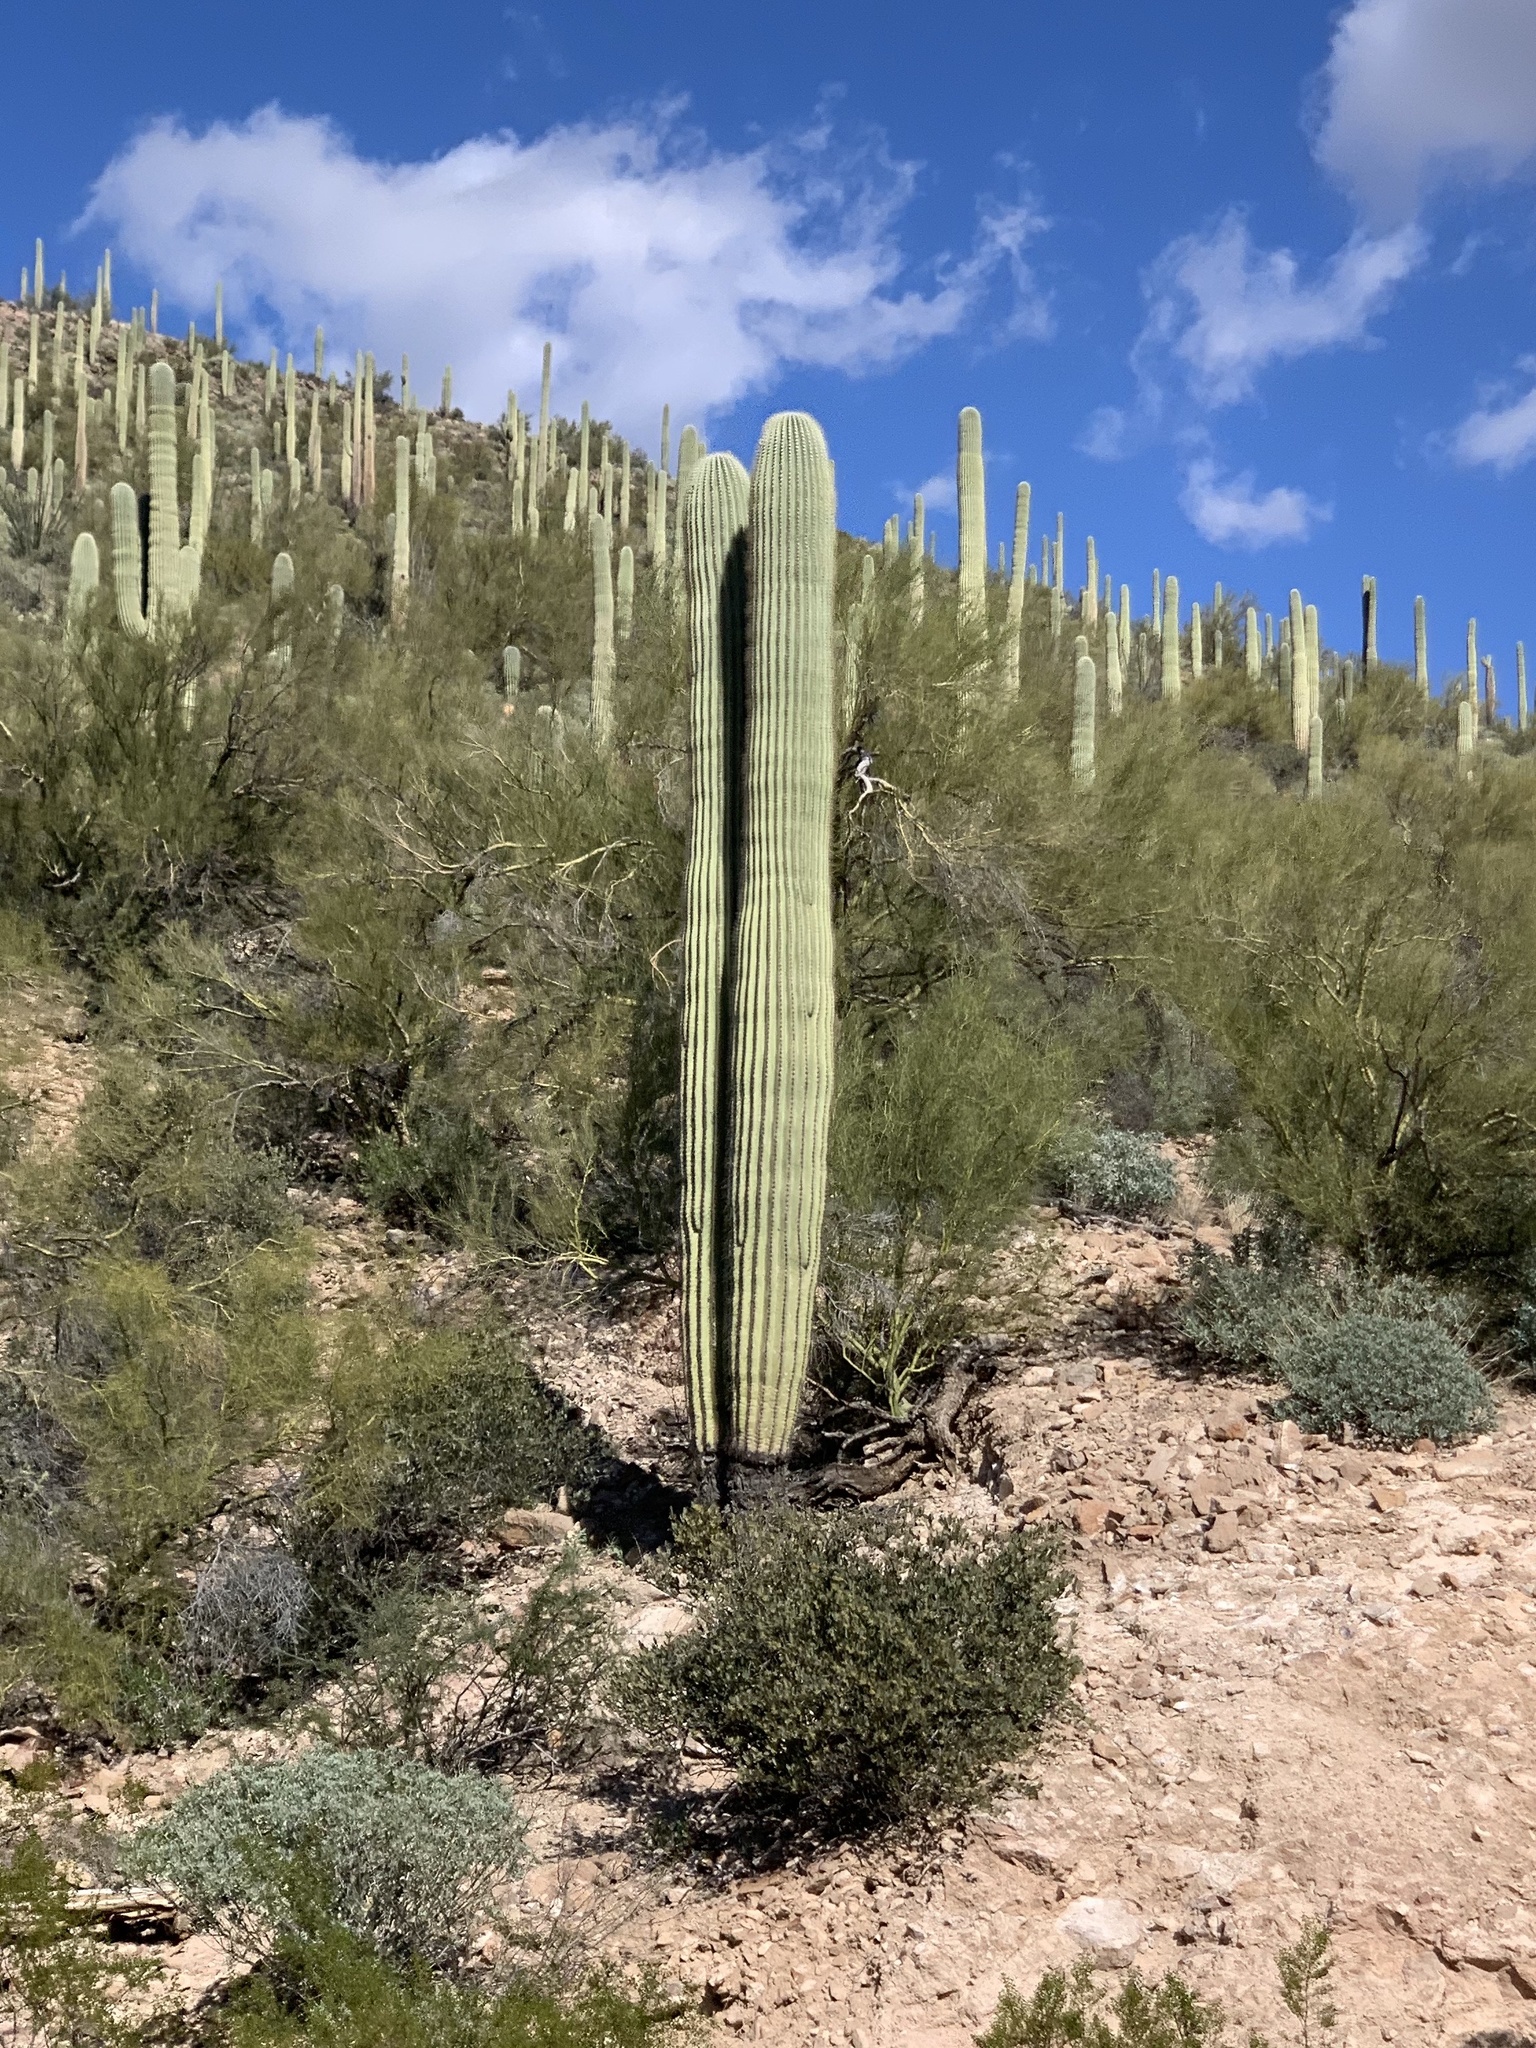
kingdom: Plantae
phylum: Tracheophyta
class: Magnoliopsida
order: Caryophyllales
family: Cactaceae
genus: Carnegiea
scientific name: Carnegiea gigantea
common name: Saguaro
